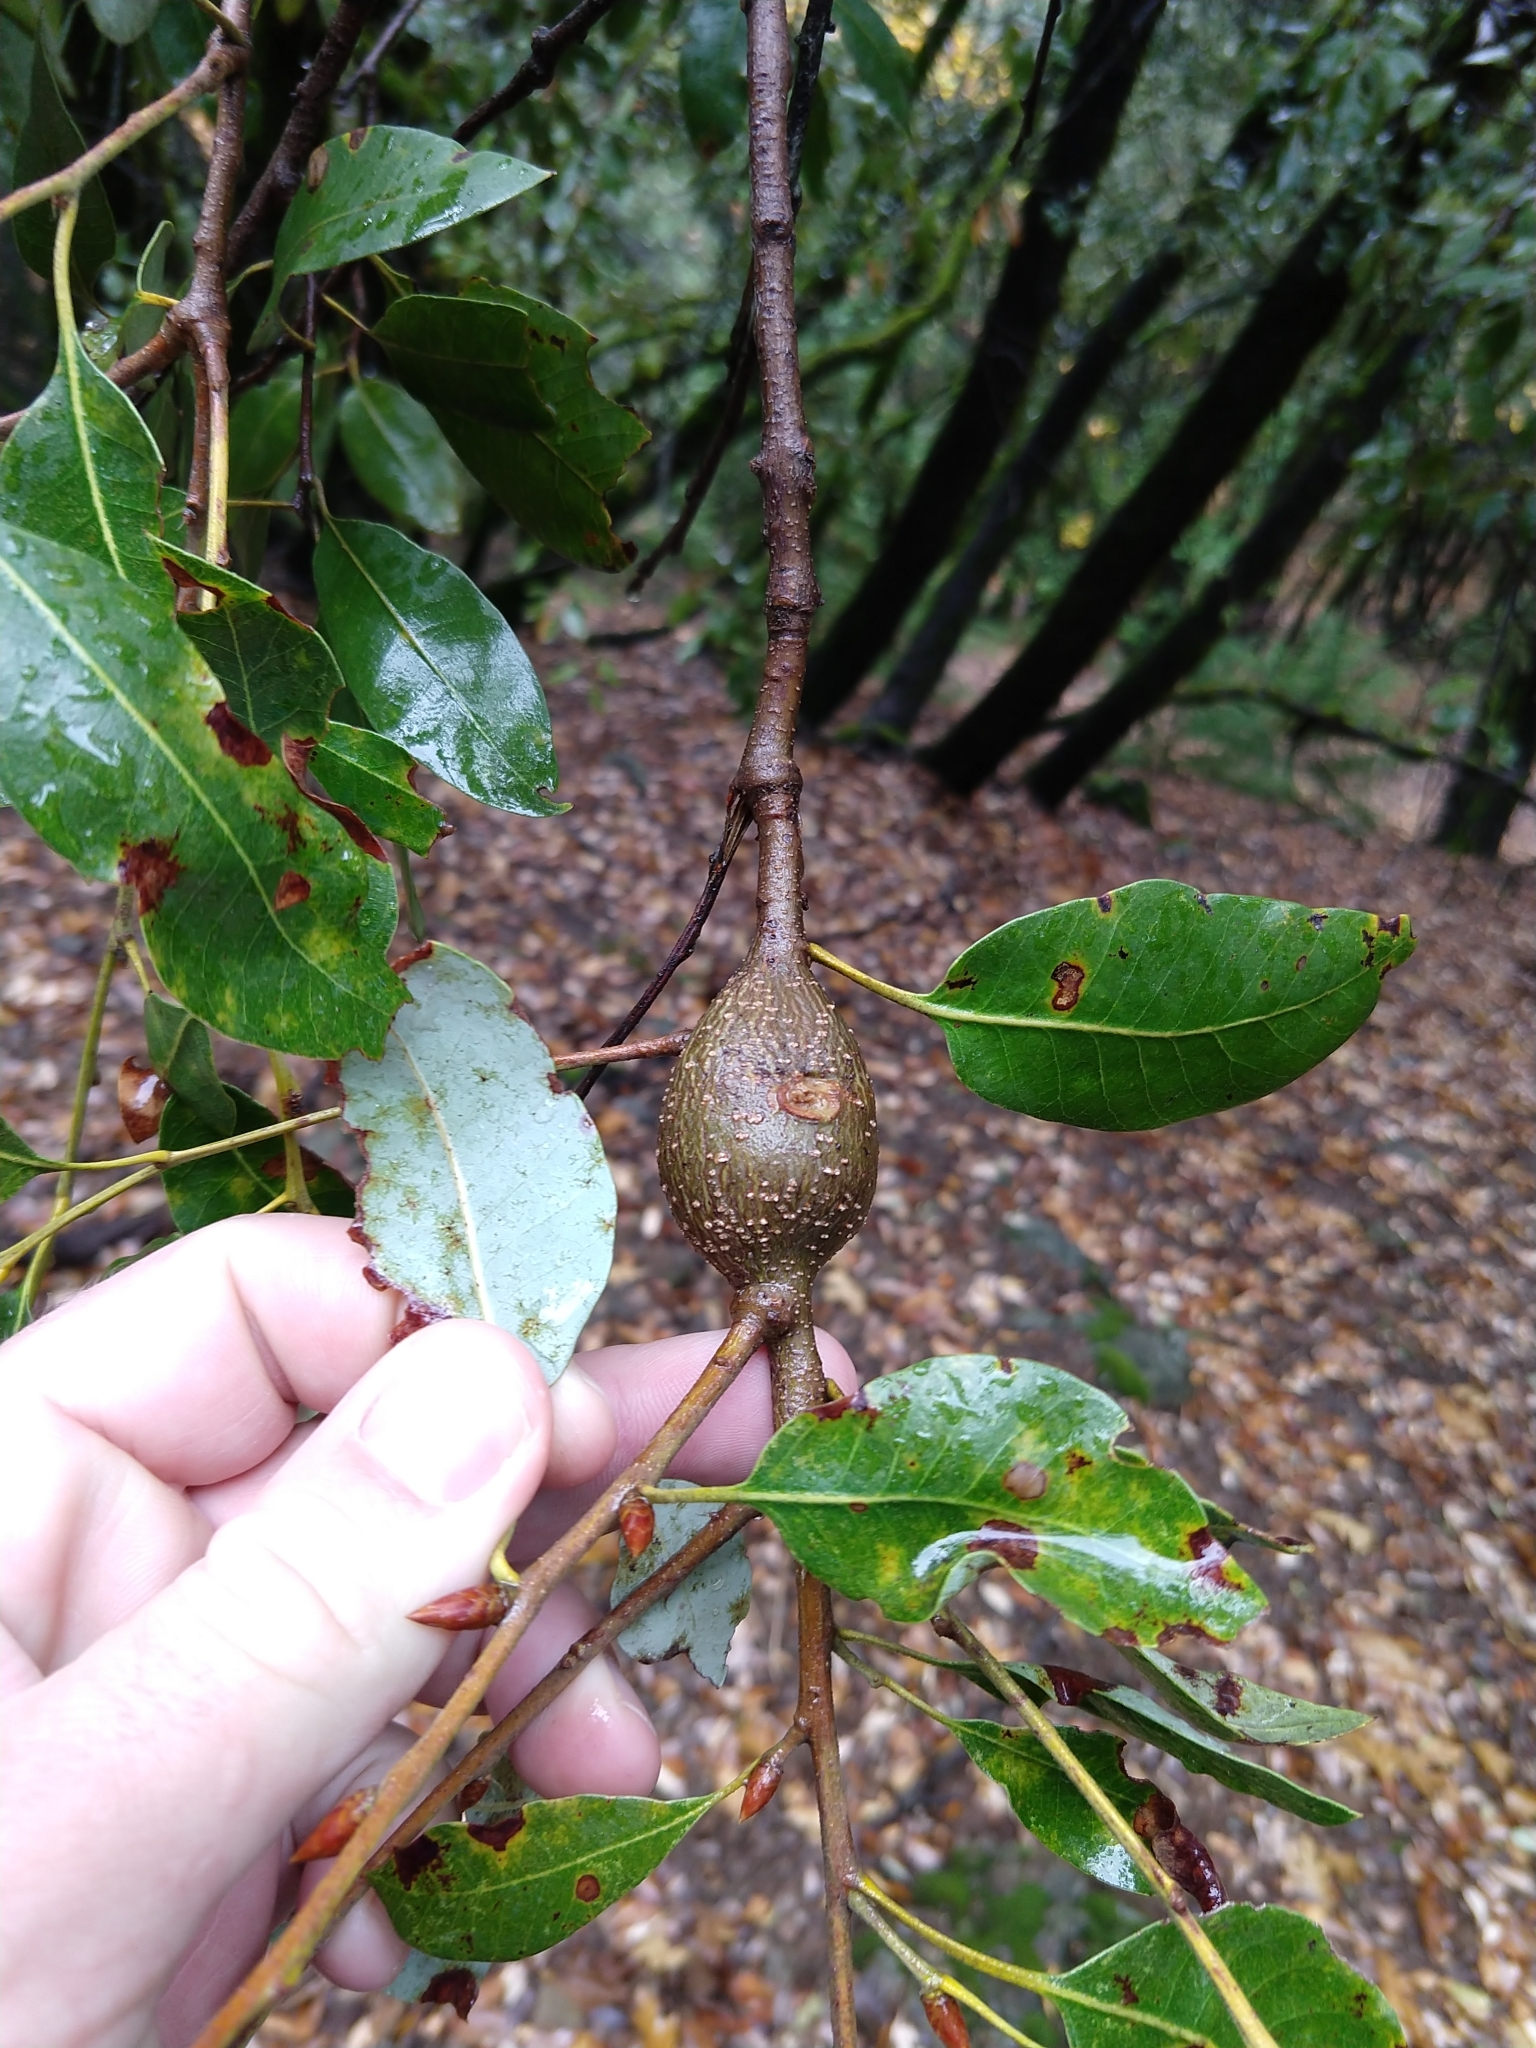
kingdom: Animalia
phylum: Arthropoda
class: Insecta
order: Hymenoptera
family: Cynipidae
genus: Disholcaspis
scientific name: Disholcaspis spectabilis
